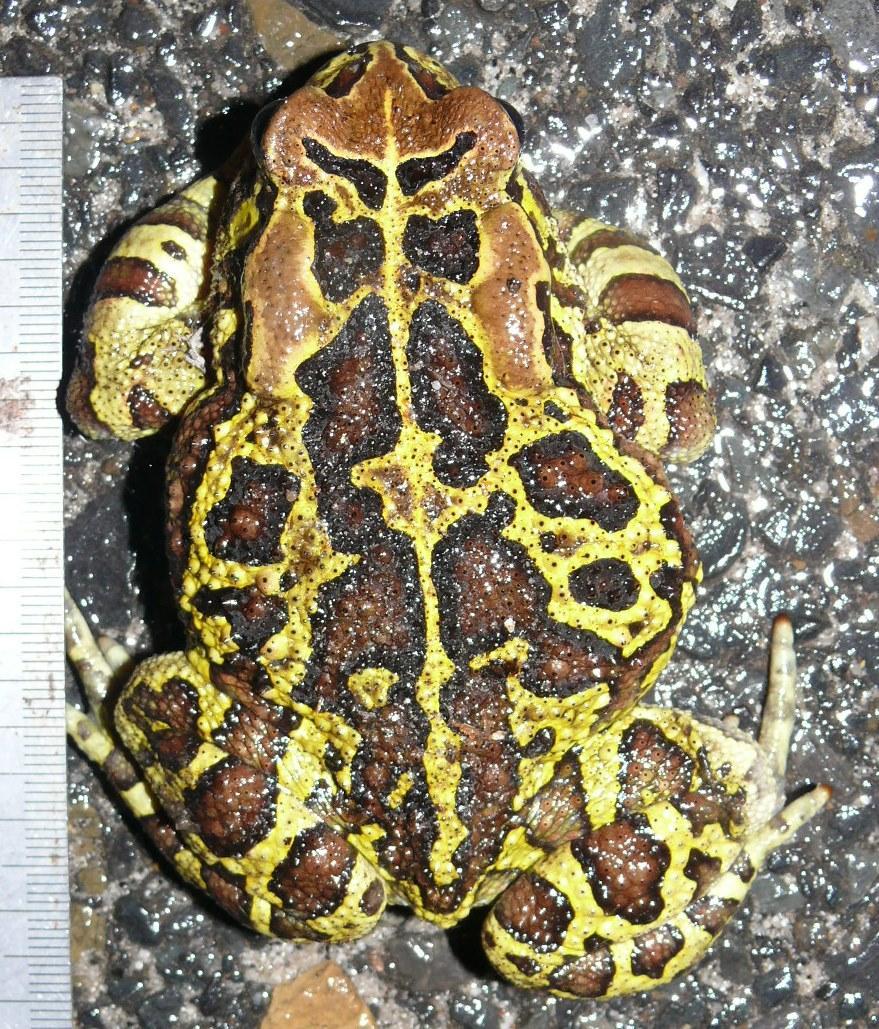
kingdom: Animalia
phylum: Chordata
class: Amphibia
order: Anura
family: Bufonidae
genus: Sclerophrys
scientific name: Sclerophrys pantherina
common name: Panther toad
